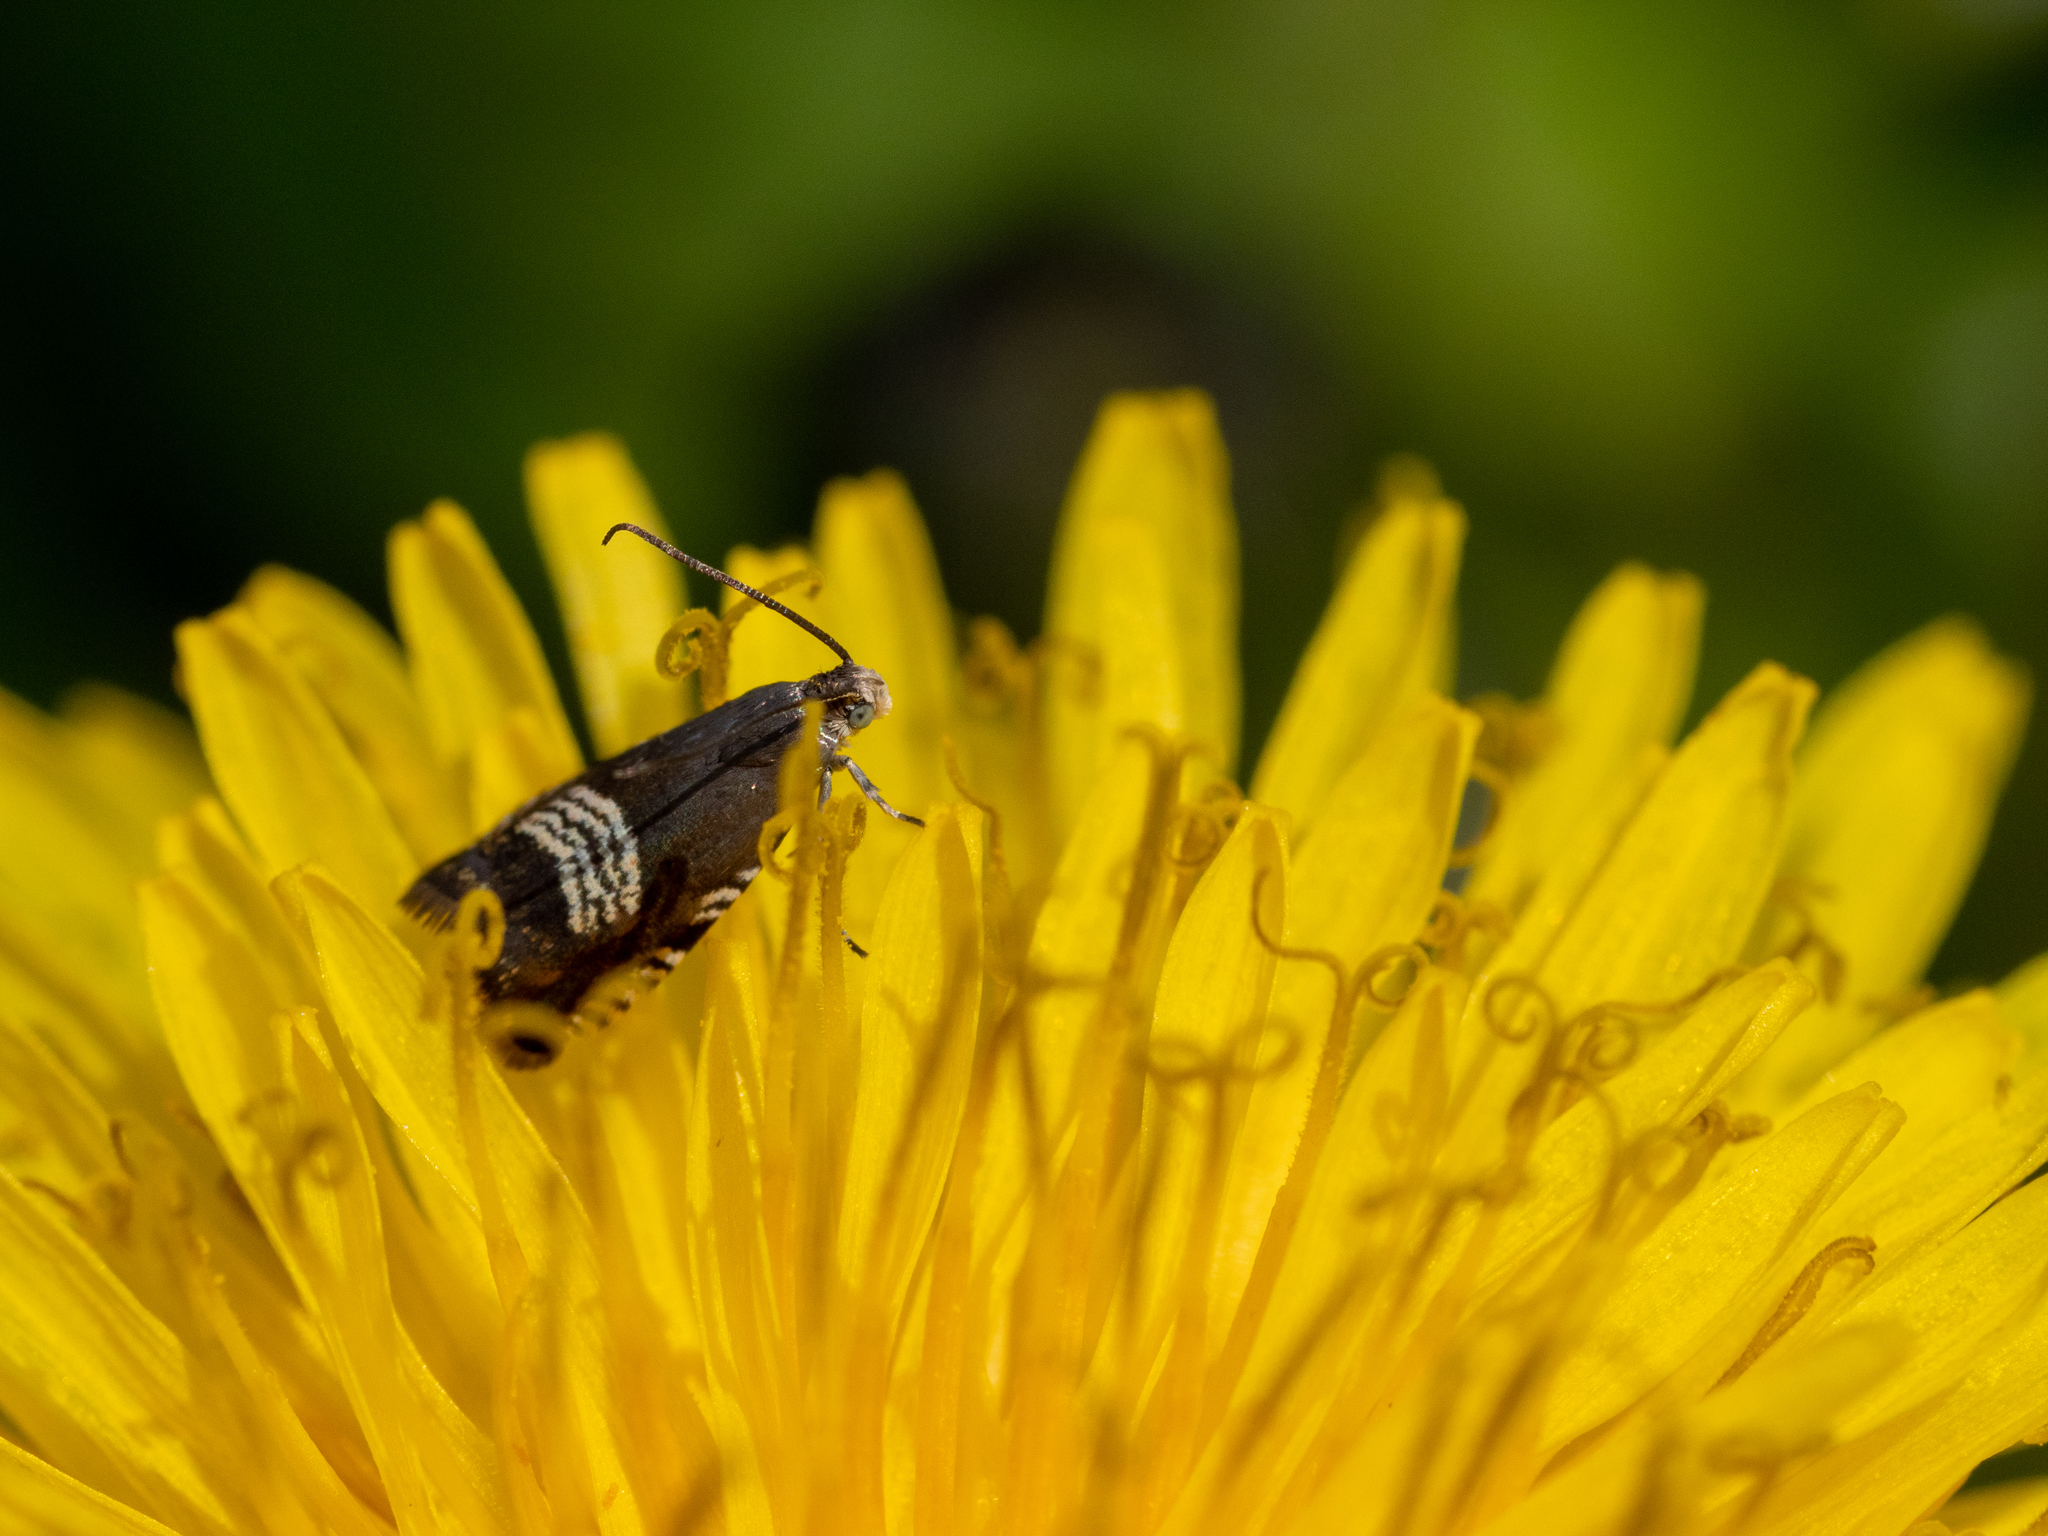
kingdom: Animalia
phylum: Arthropoda
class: Insecta
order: Lepidoptera
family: Tortricidae
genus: Grapholita
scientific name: Grapholita compositella
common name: Triple-stripe piercer
